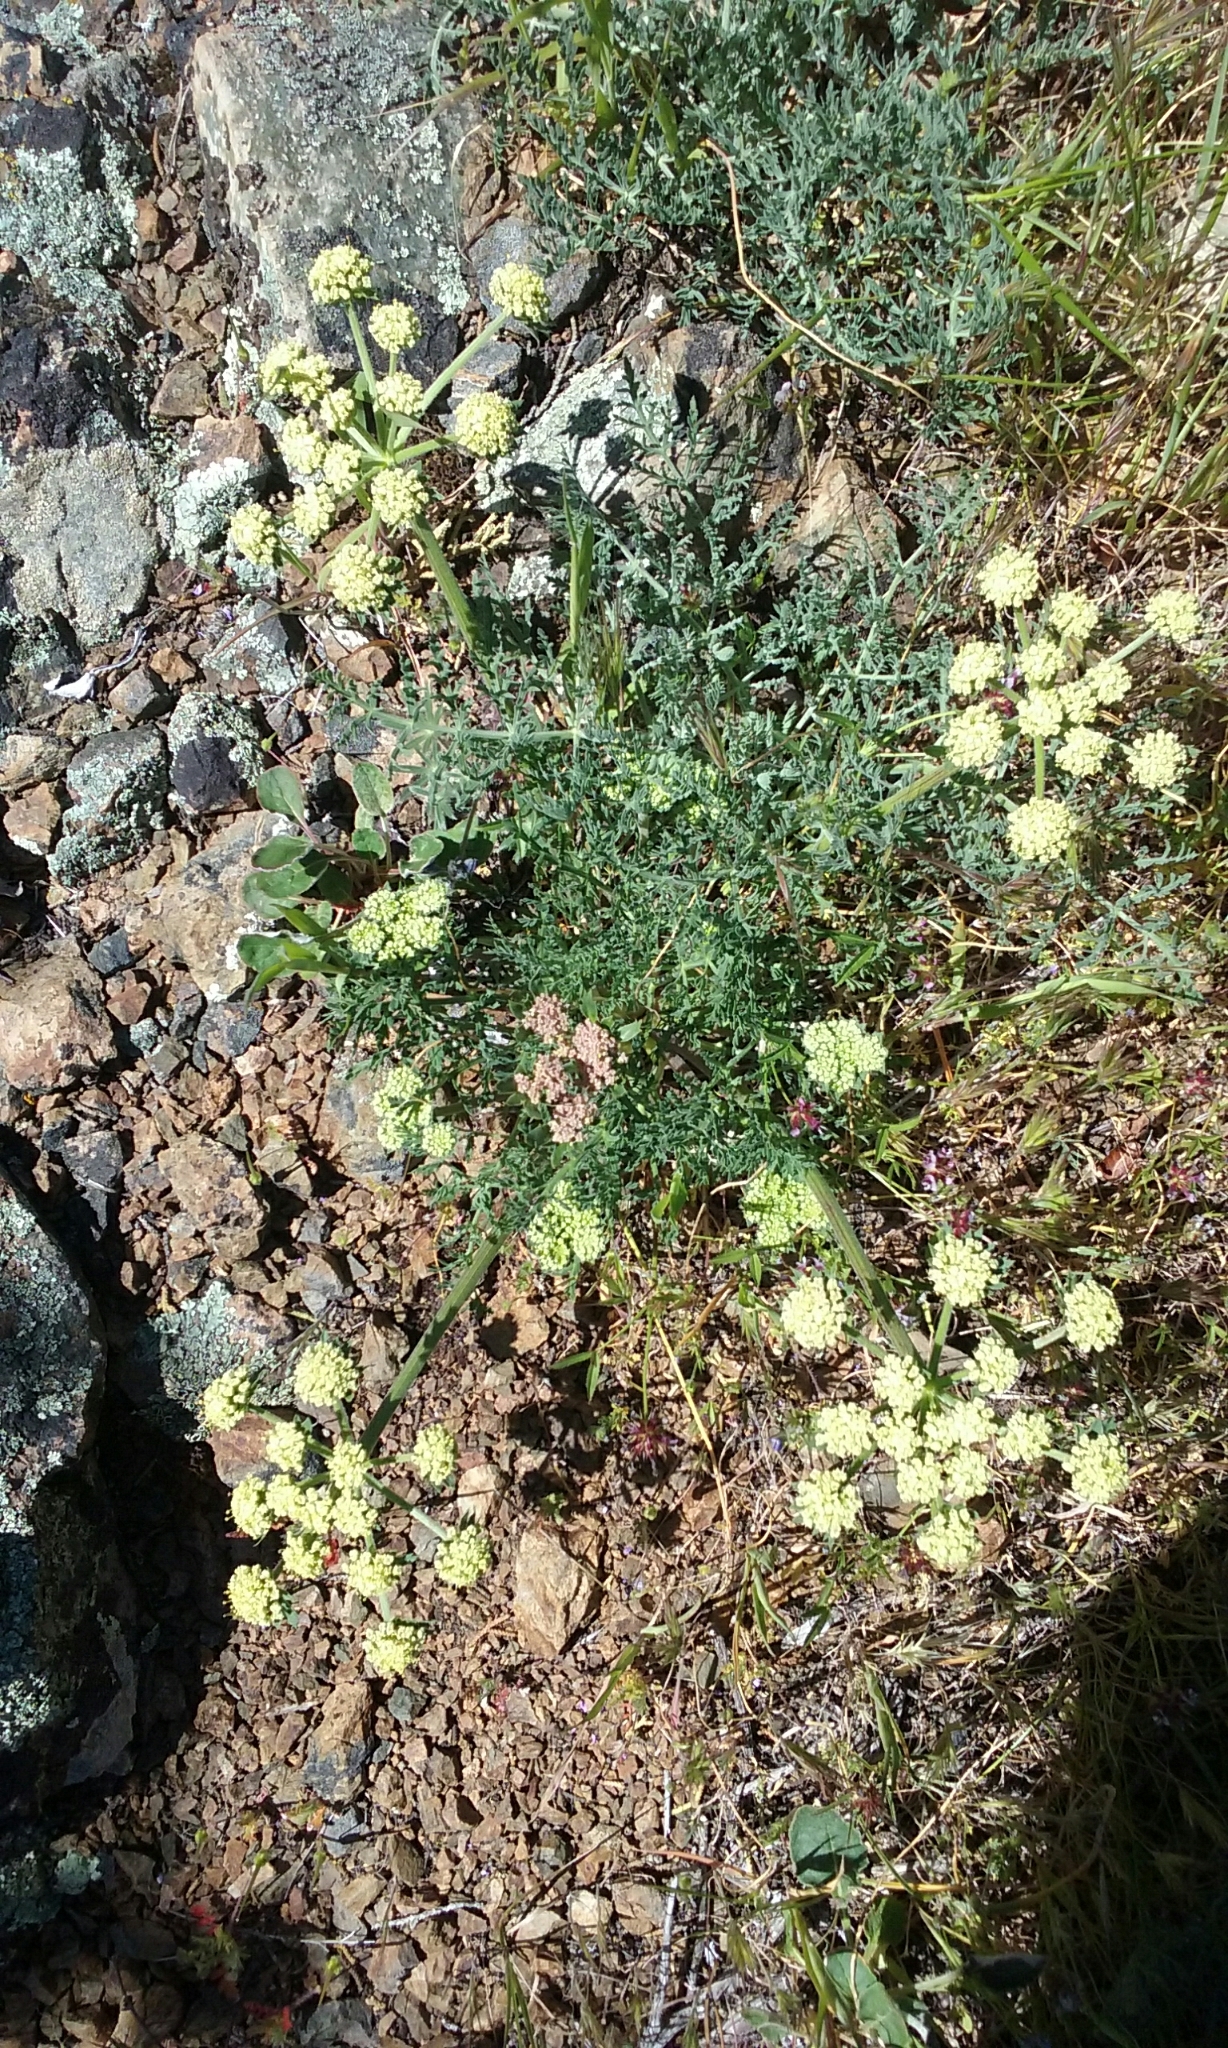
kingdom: Plantae
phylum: Tracheophyta
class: Magnoliopsida
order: Apiales
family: Apiaceae
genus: Lomatium
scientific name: Lomatium dasycarpum
